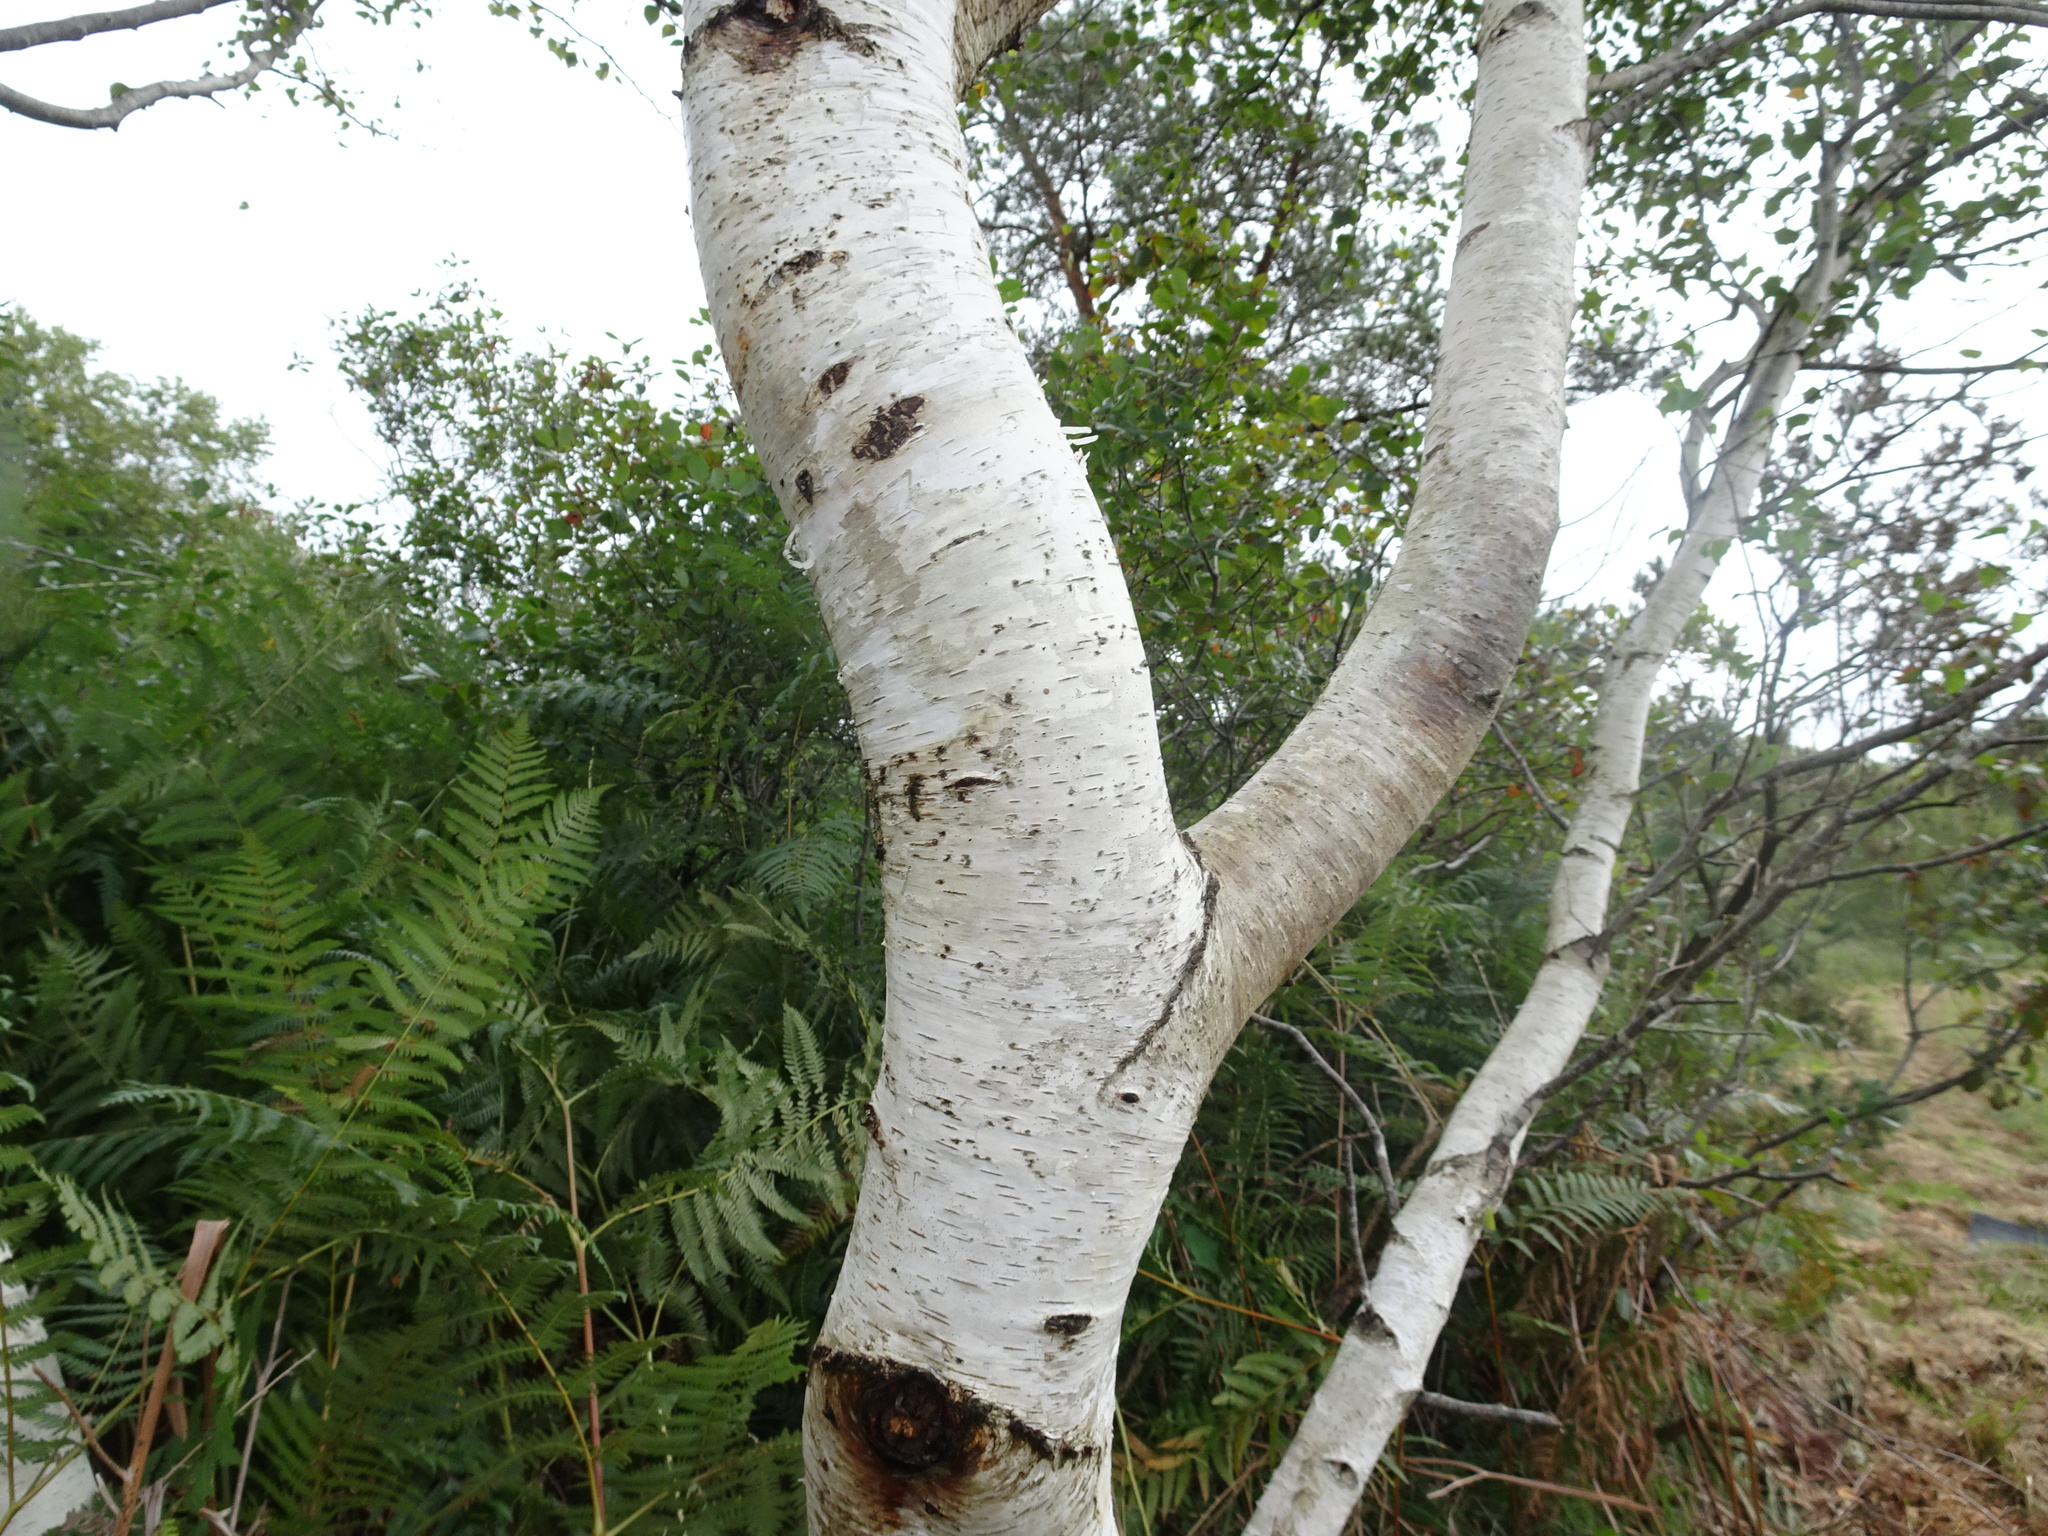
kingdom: Plantae
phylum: Tracheophyta
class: Magnoliopsida
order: Fagales
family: Betulaceae
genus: Betula
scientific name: Betula pubescens
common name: Downy birch
